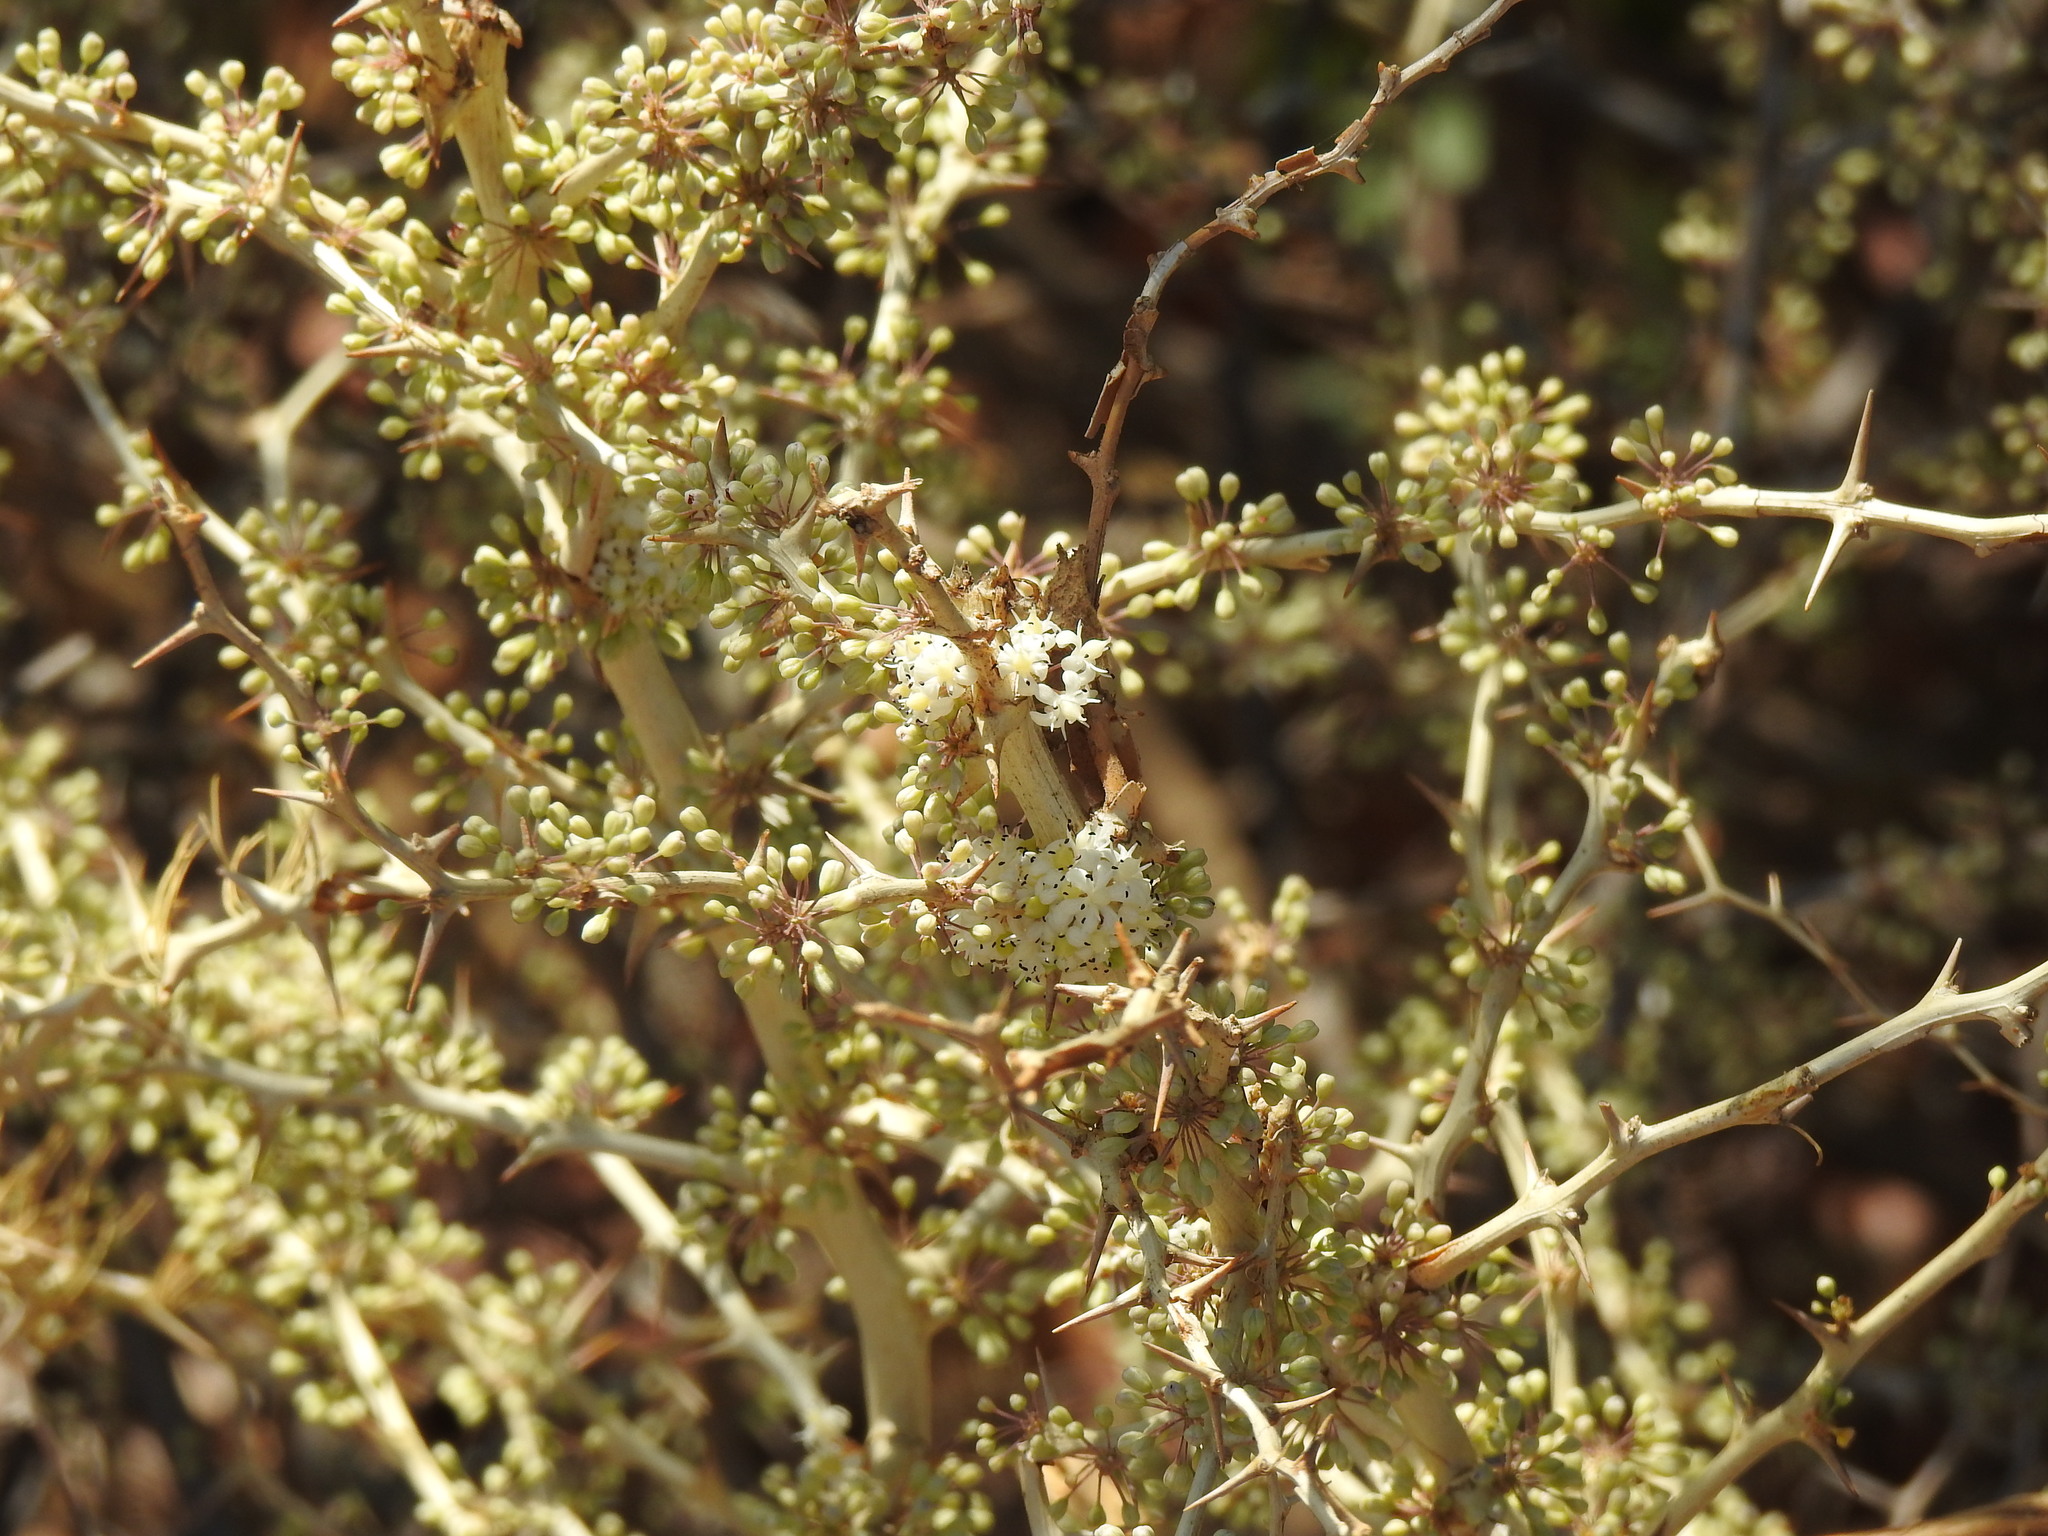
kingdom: Plantae
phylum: Tracheophyta
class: Liliopsida
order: Asparagales
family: Asparagaceae
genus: Asparagus
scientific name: Asparagus albus
